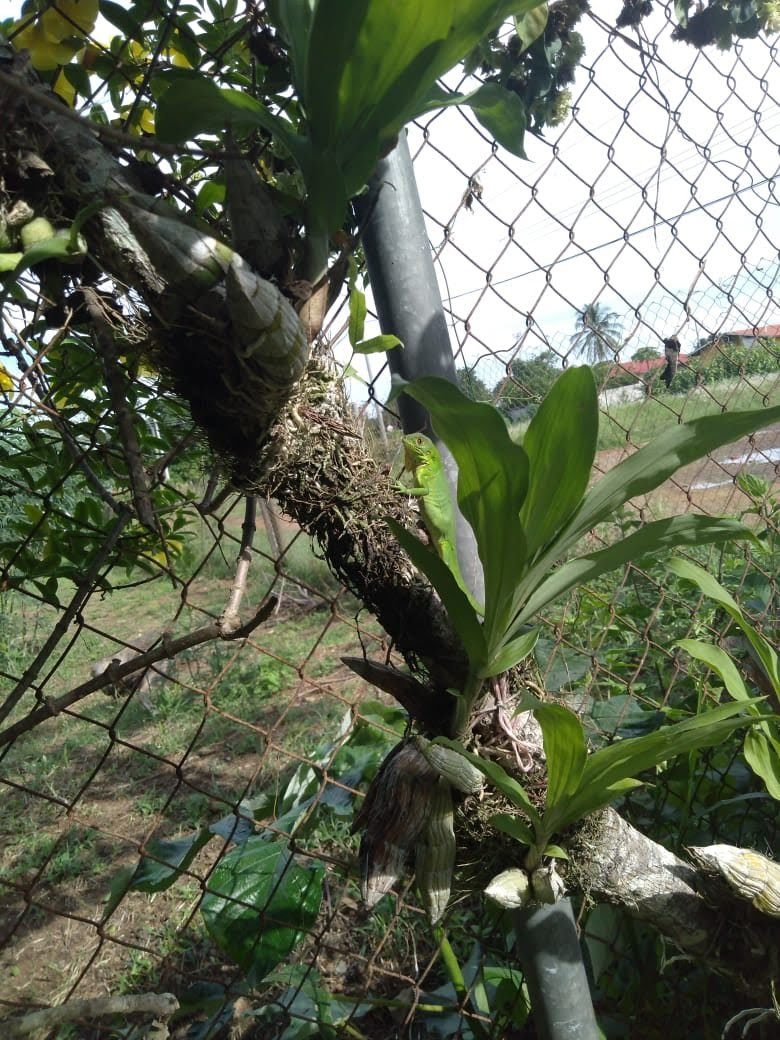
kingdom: Animalia
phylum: Chordata
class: Squamata
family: Iguanidae
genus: Iguana
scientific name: Iguana iguana
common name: Green iguana
